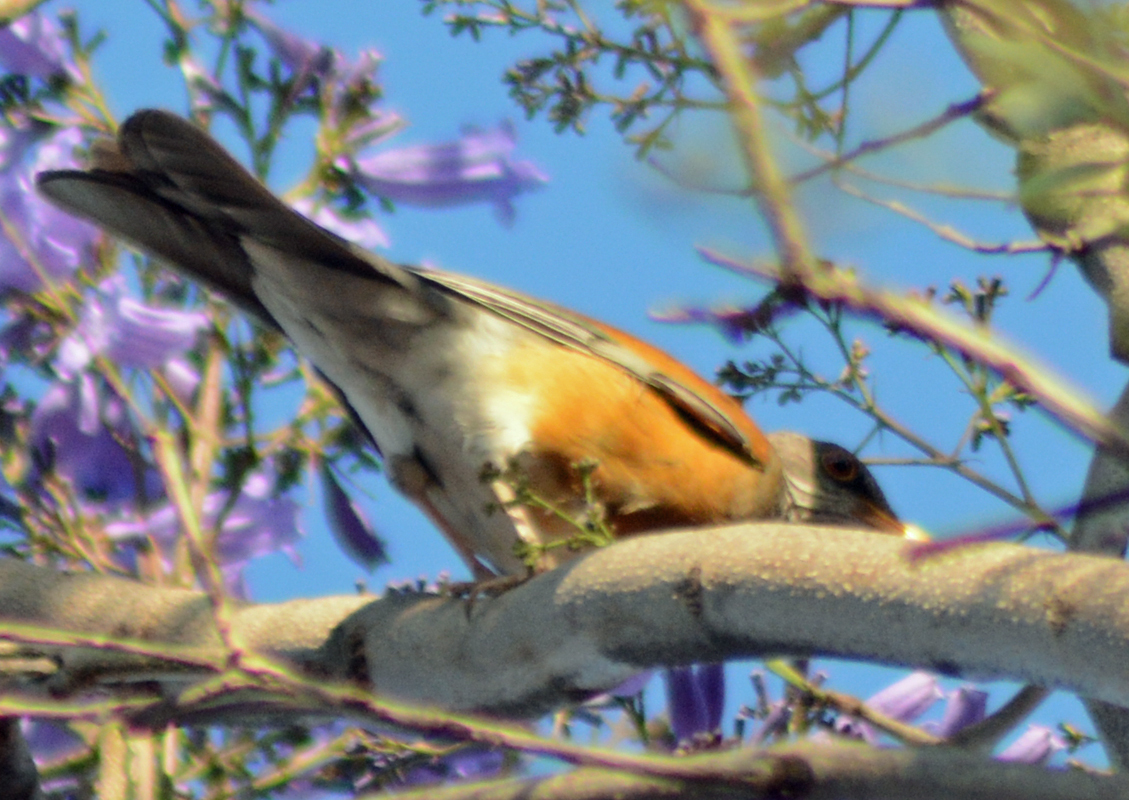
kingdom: Animalia
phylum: Chordata
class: Aves
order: Passeriformes
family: Turdidae
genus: Turdus
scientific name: Turdus rufopalliatus
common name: Rufous-backed robin
